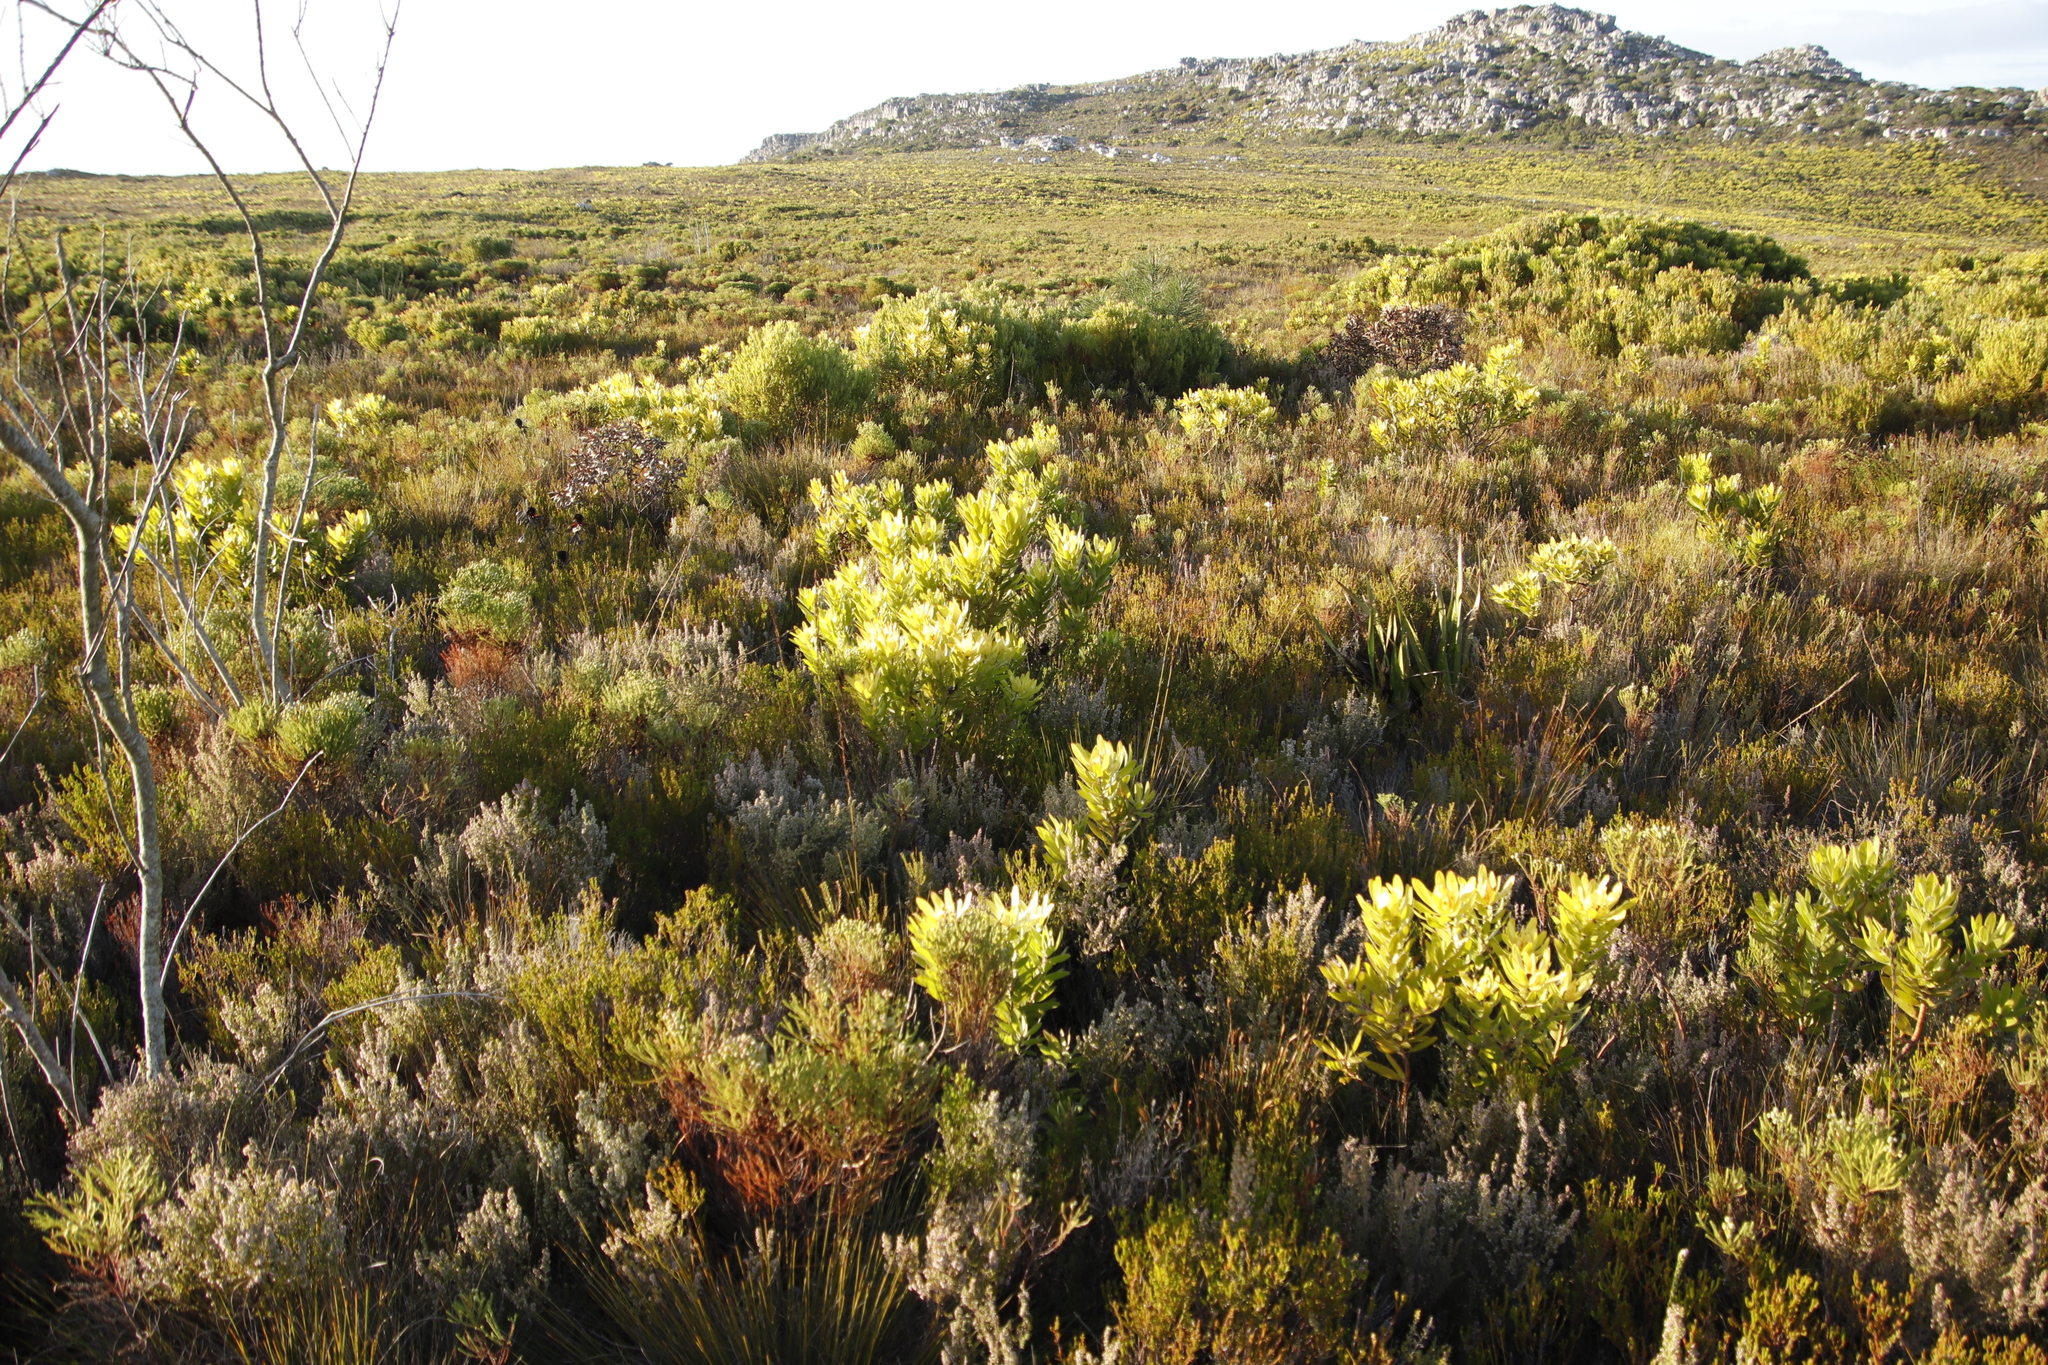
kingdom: Plantae
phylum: Tracheophyta
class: Magnoliopsida
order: Proteales
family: Proteaceae
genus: Leucadendron
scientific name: Leucadendron laureolum
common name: Golden sunshinebush
